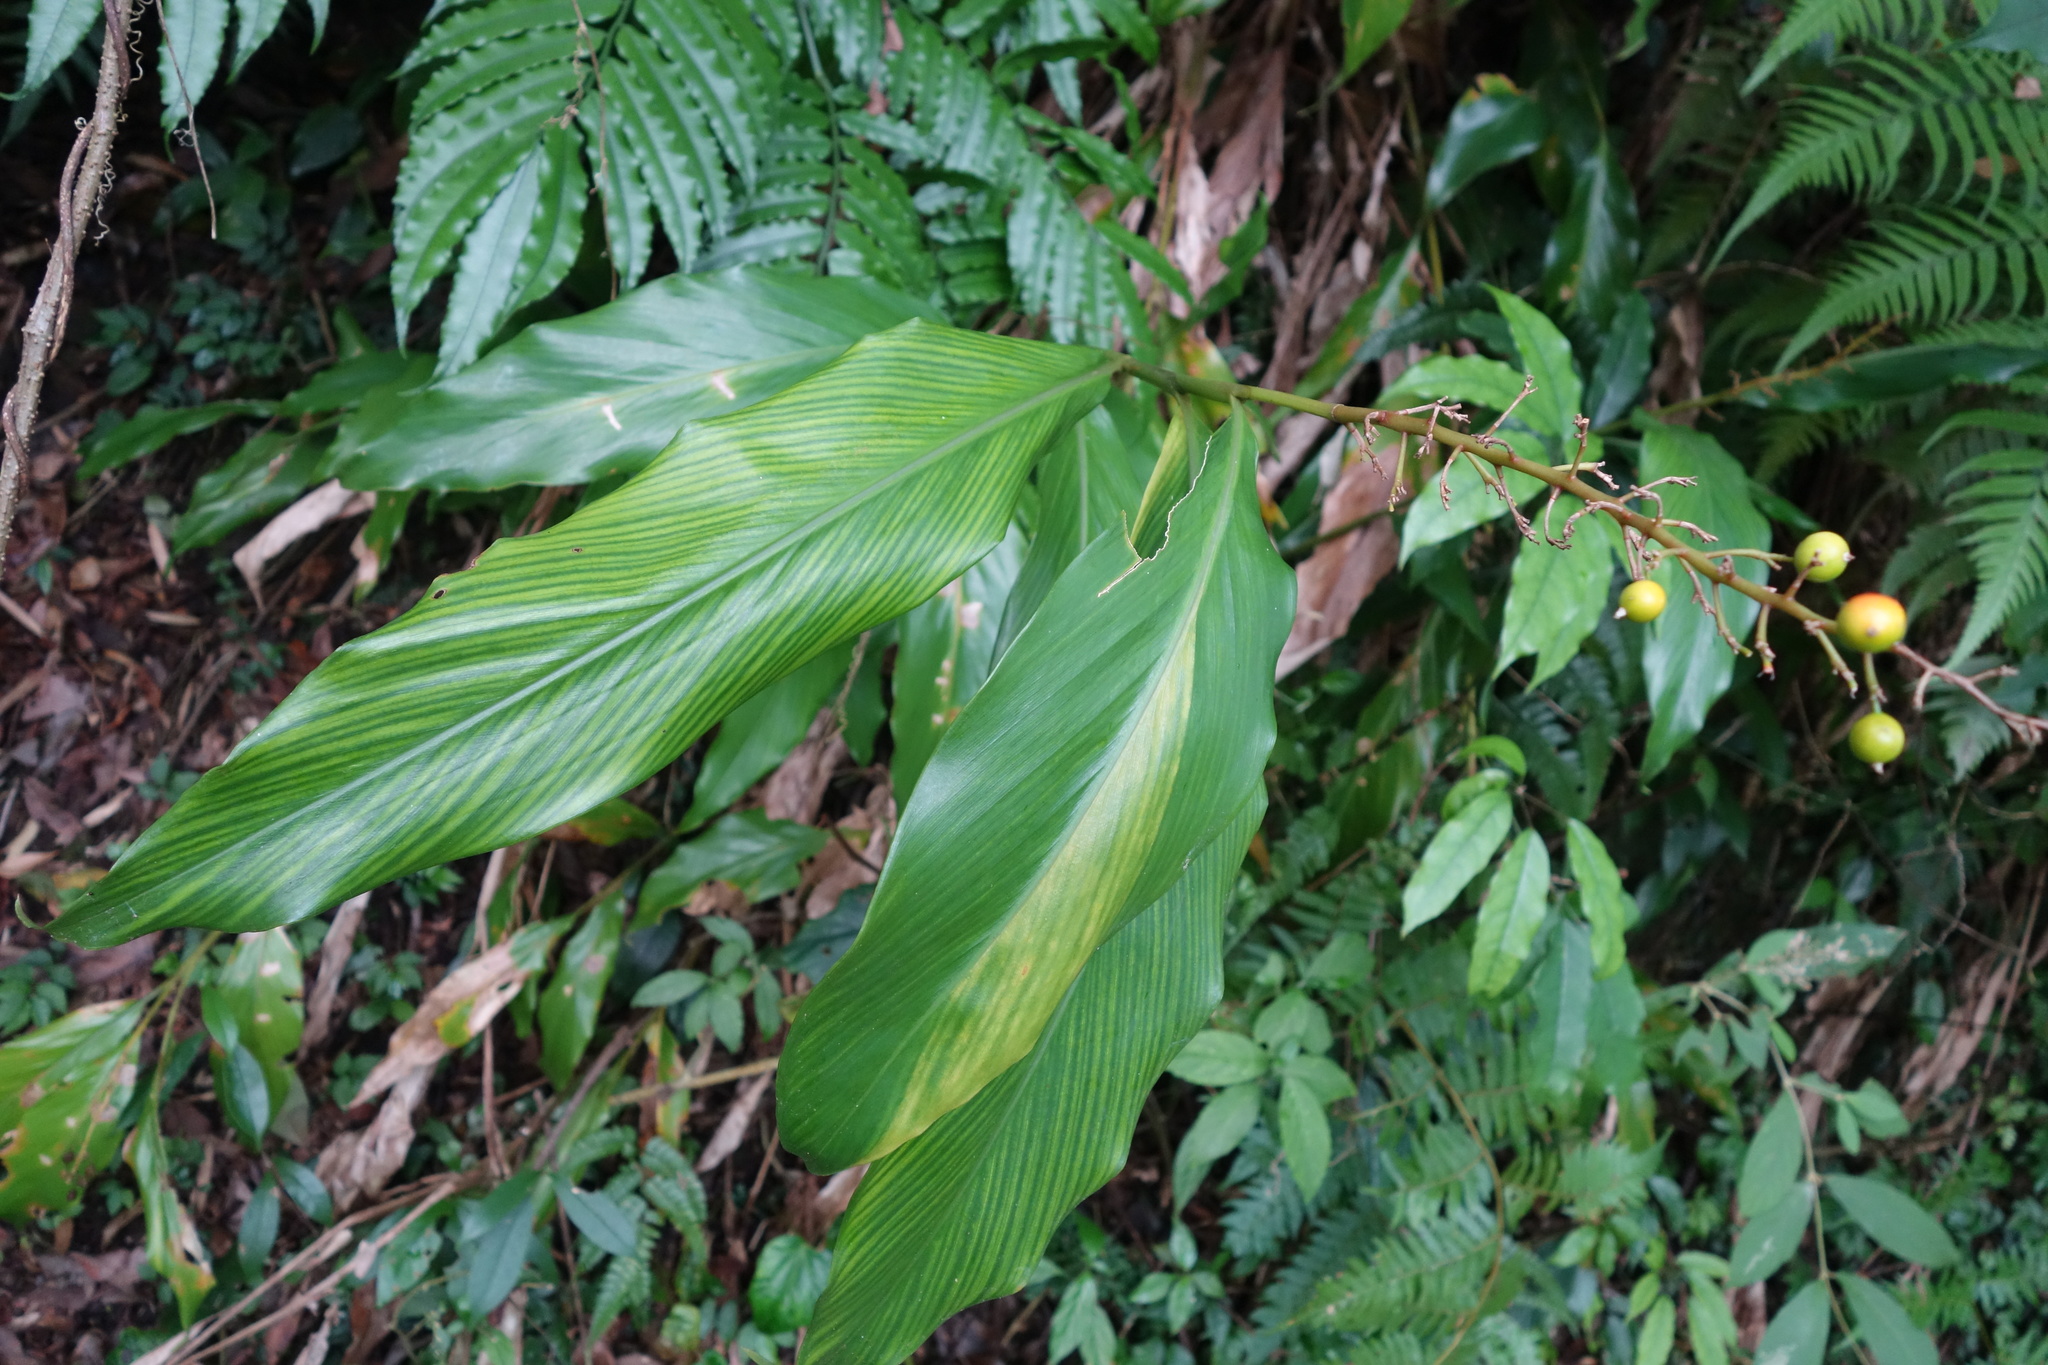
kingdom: Plantae
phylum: Tracheophyta
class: Liliopsida
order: Zingiberales
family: Zingiberaceae
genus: Alpinia
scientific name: Alpinia intermedia
